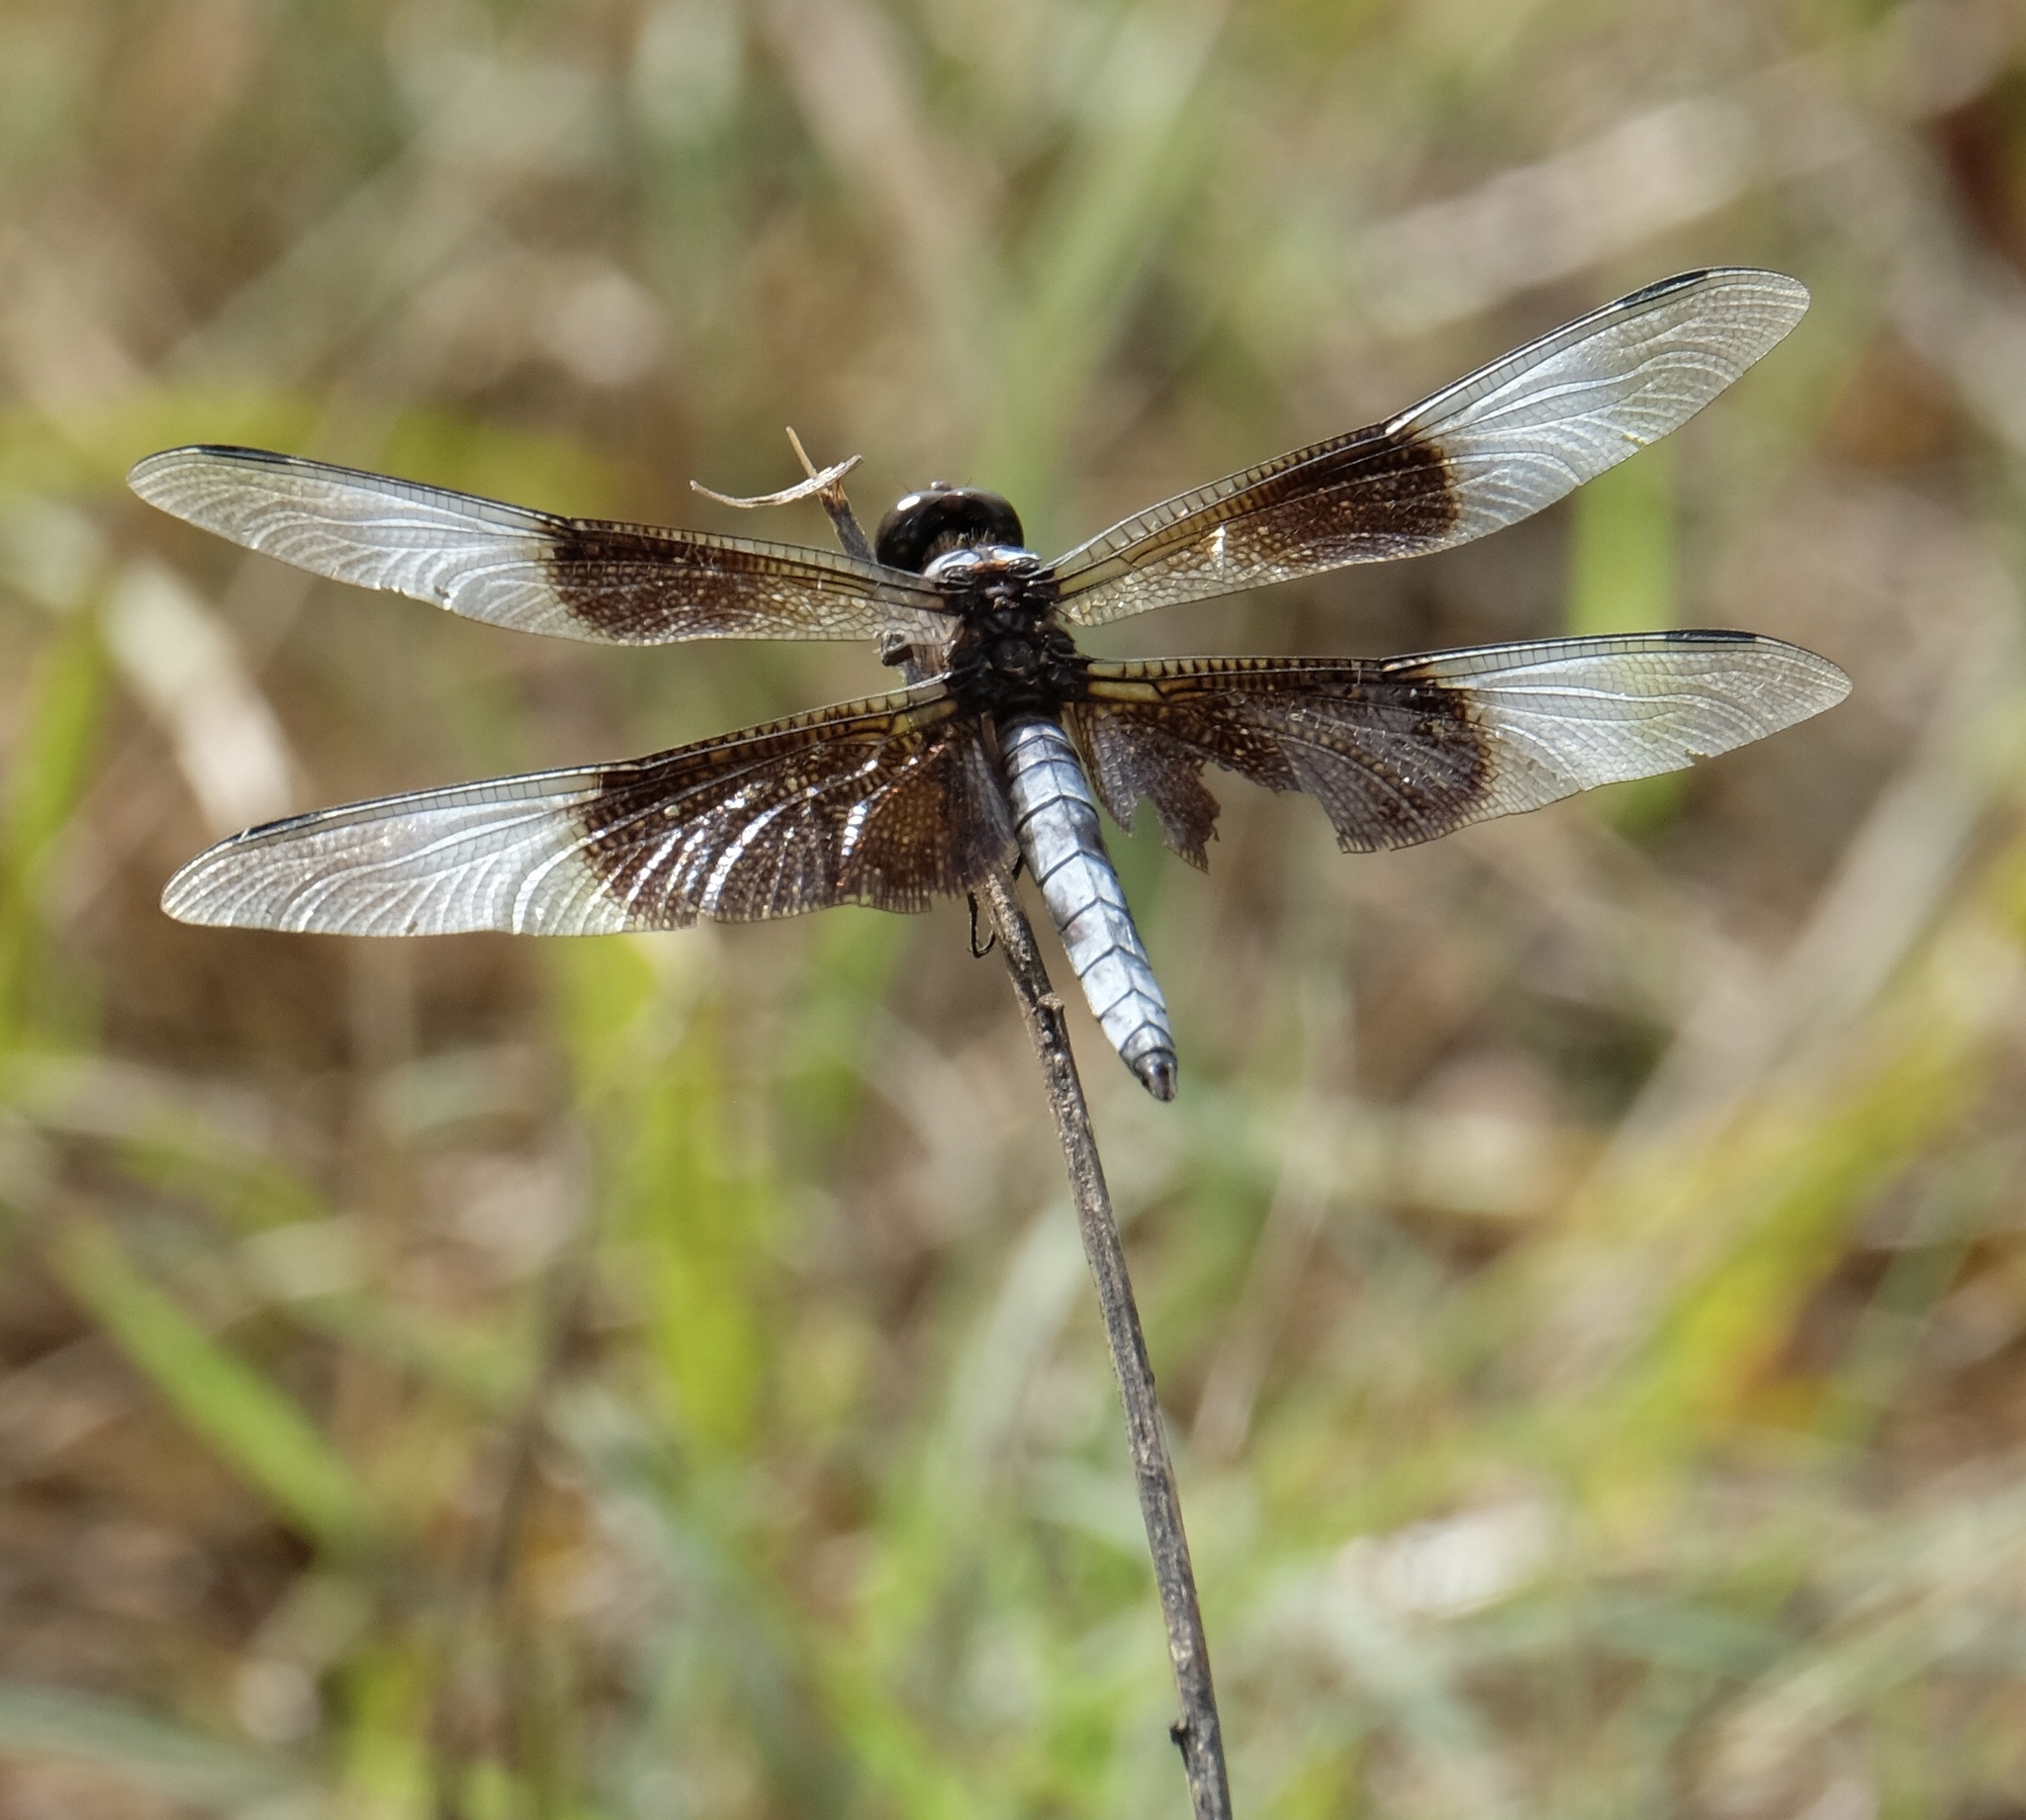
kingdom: Animalia
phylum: Arthropoda
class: Insecta
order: Odonata
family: Libellulidae
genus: Libellula
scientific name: Libellula luctuosa
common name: Widow skimmer
